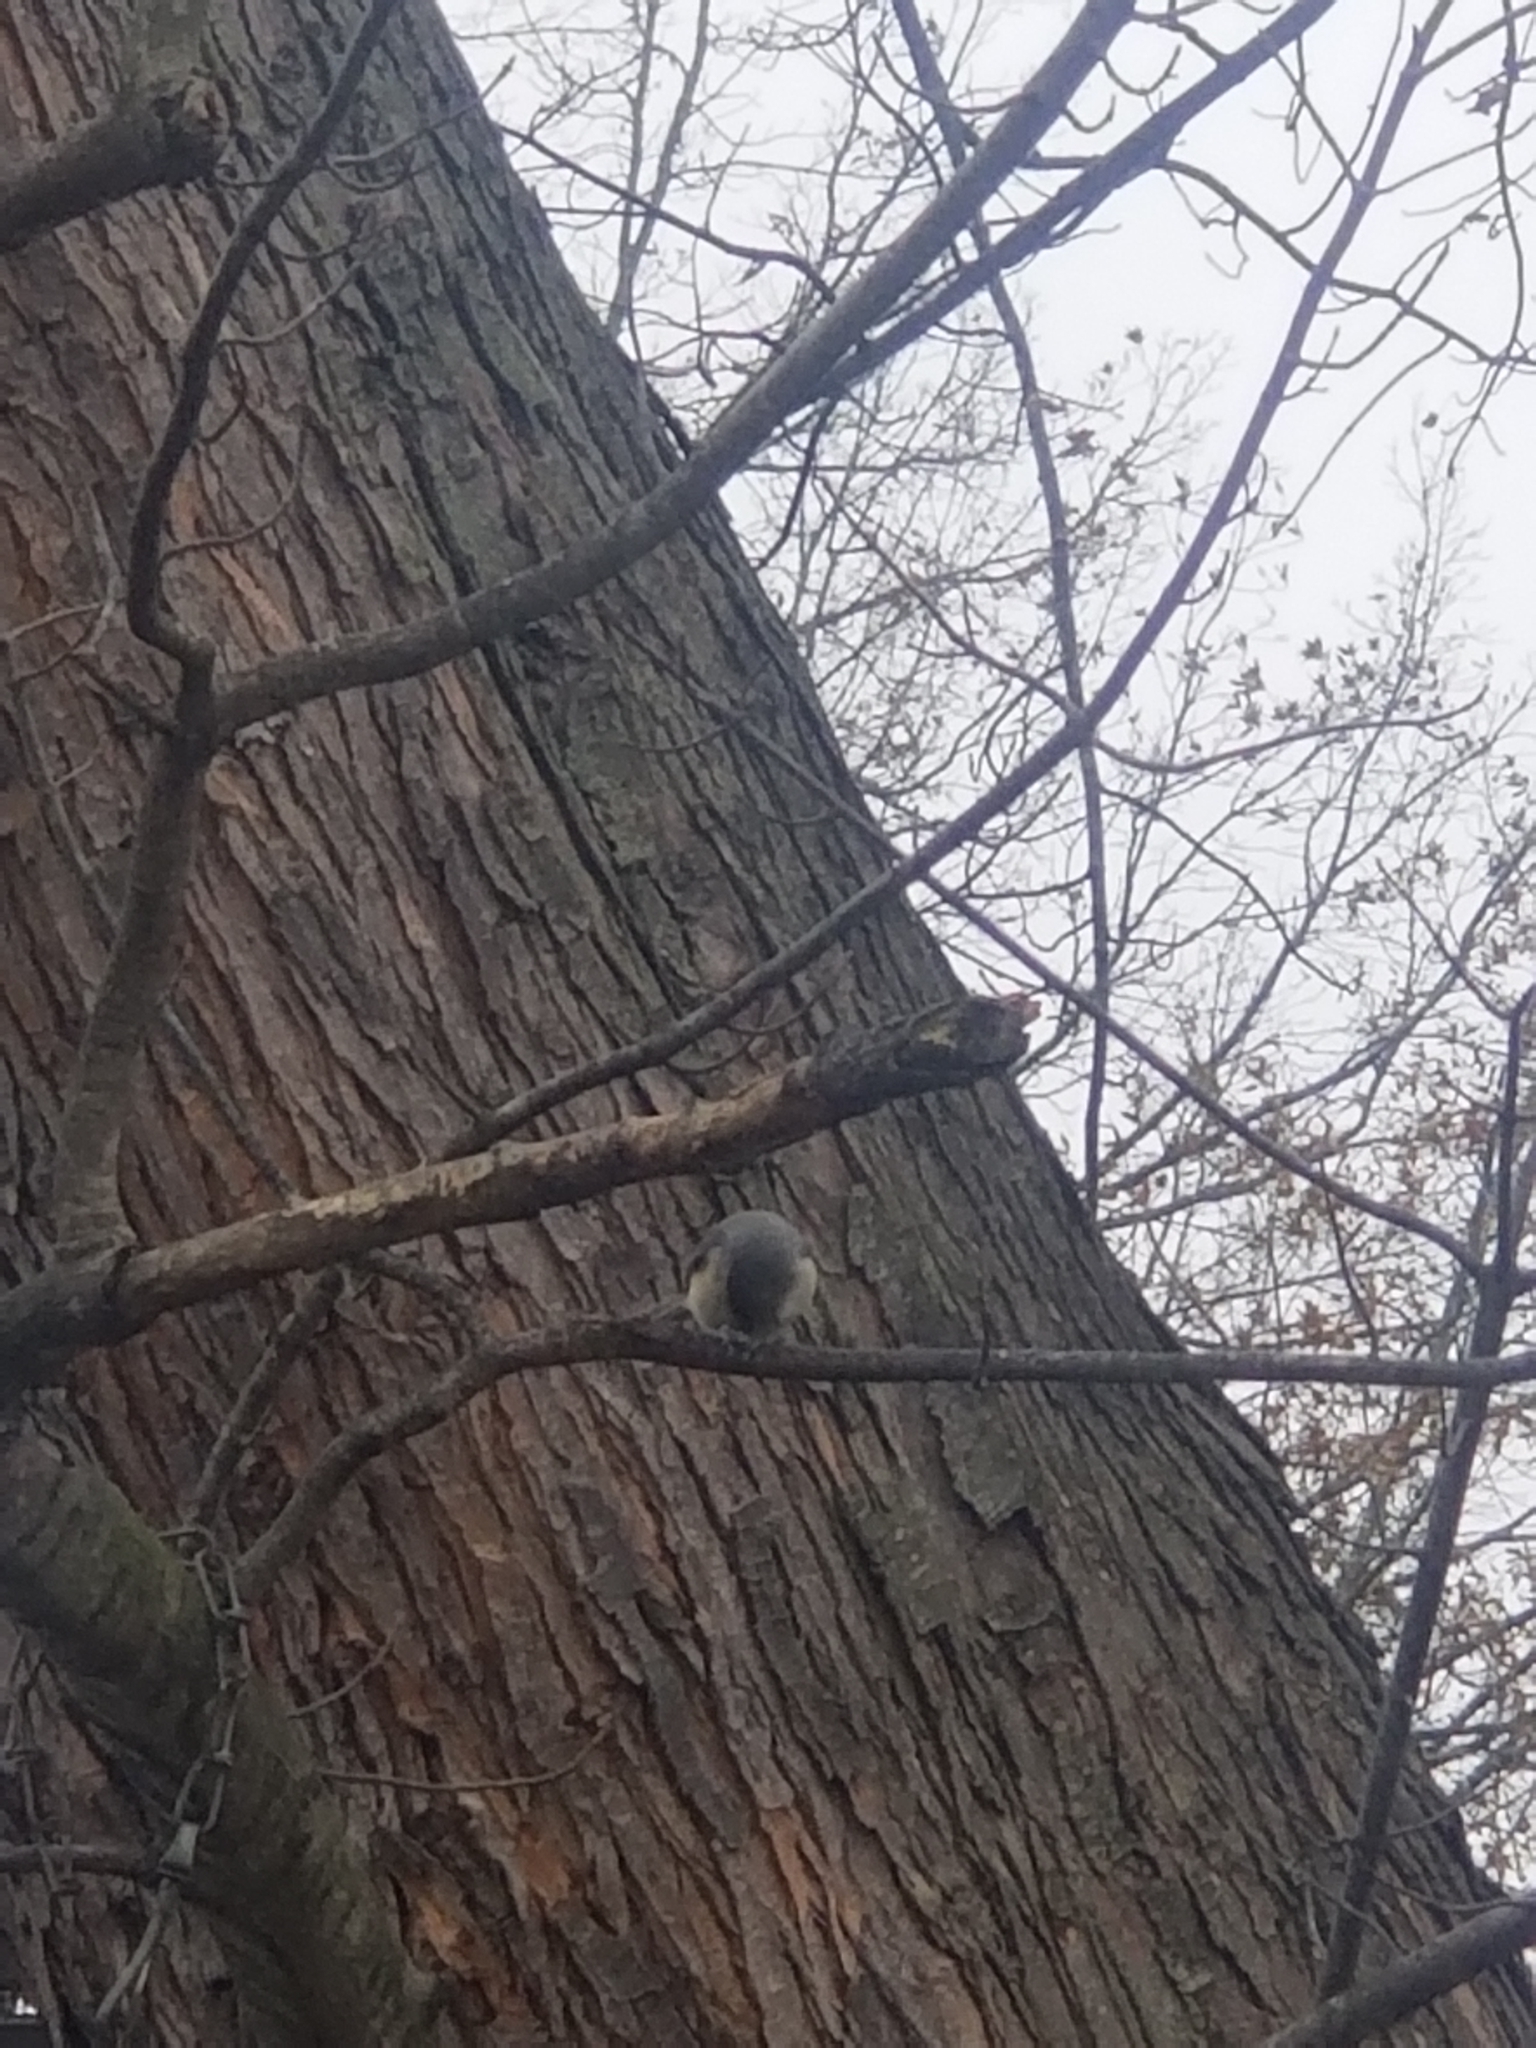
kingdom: Animalia
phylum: Chordata
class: Aves
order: Passeriformes
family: Paridae
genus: Baeolophus
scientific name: Baeolophus bicolor
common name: Tufted titmouse
